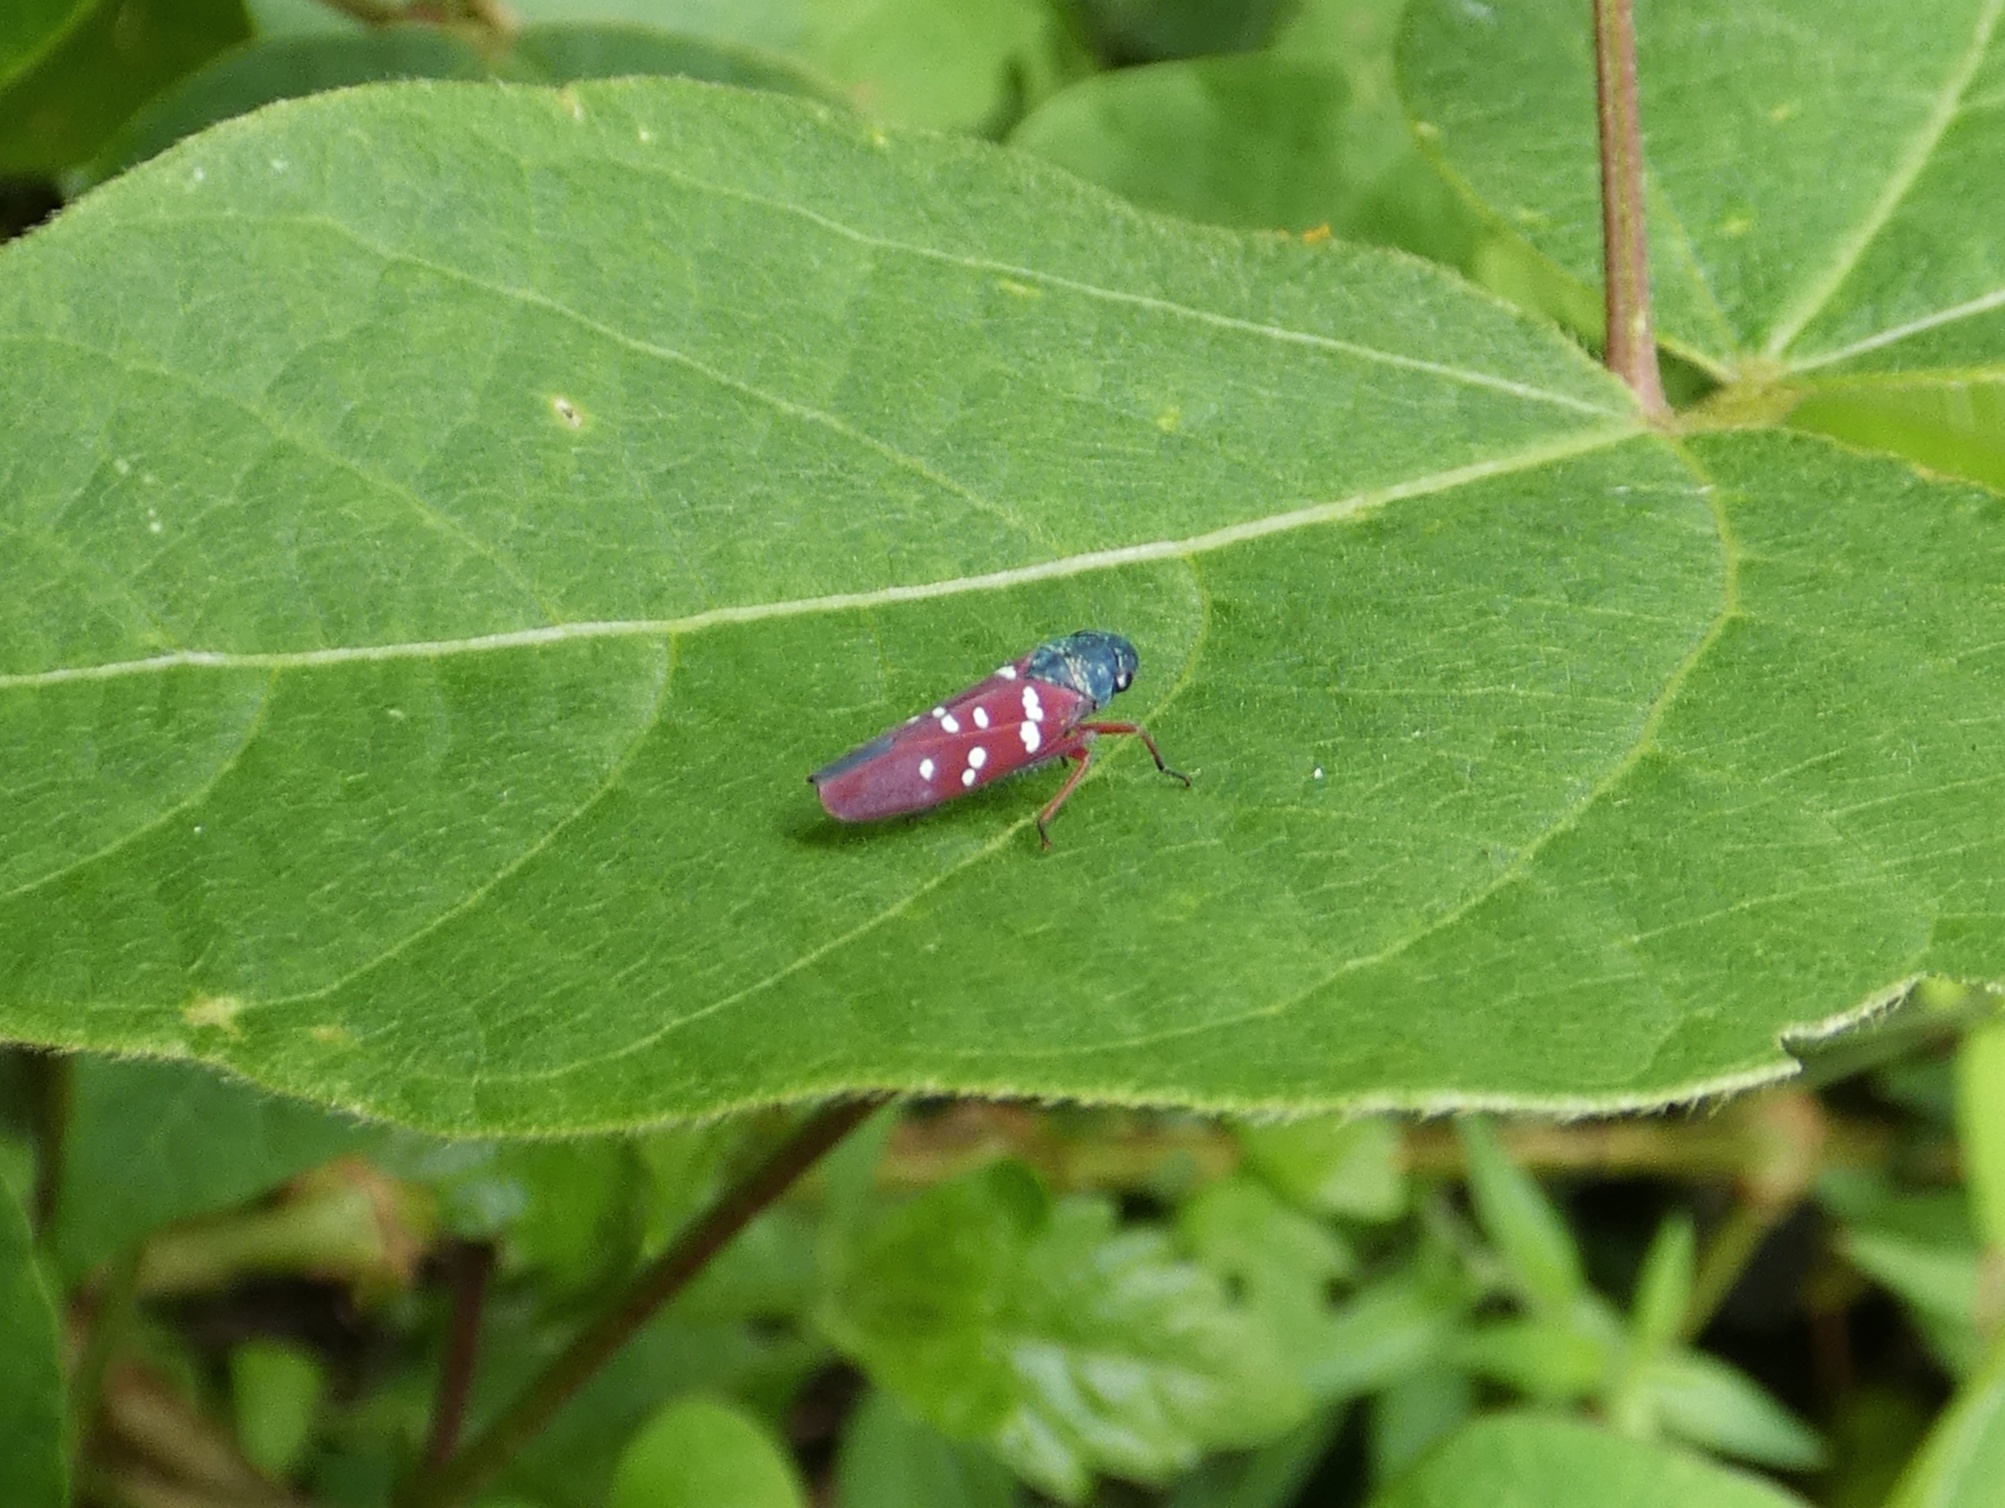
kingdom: Animalia
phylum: Arthropoda
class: Insecta
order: Hemiptera
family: Cicadellidae
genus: Graphocephala
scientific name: Graphocephala albomaculata
